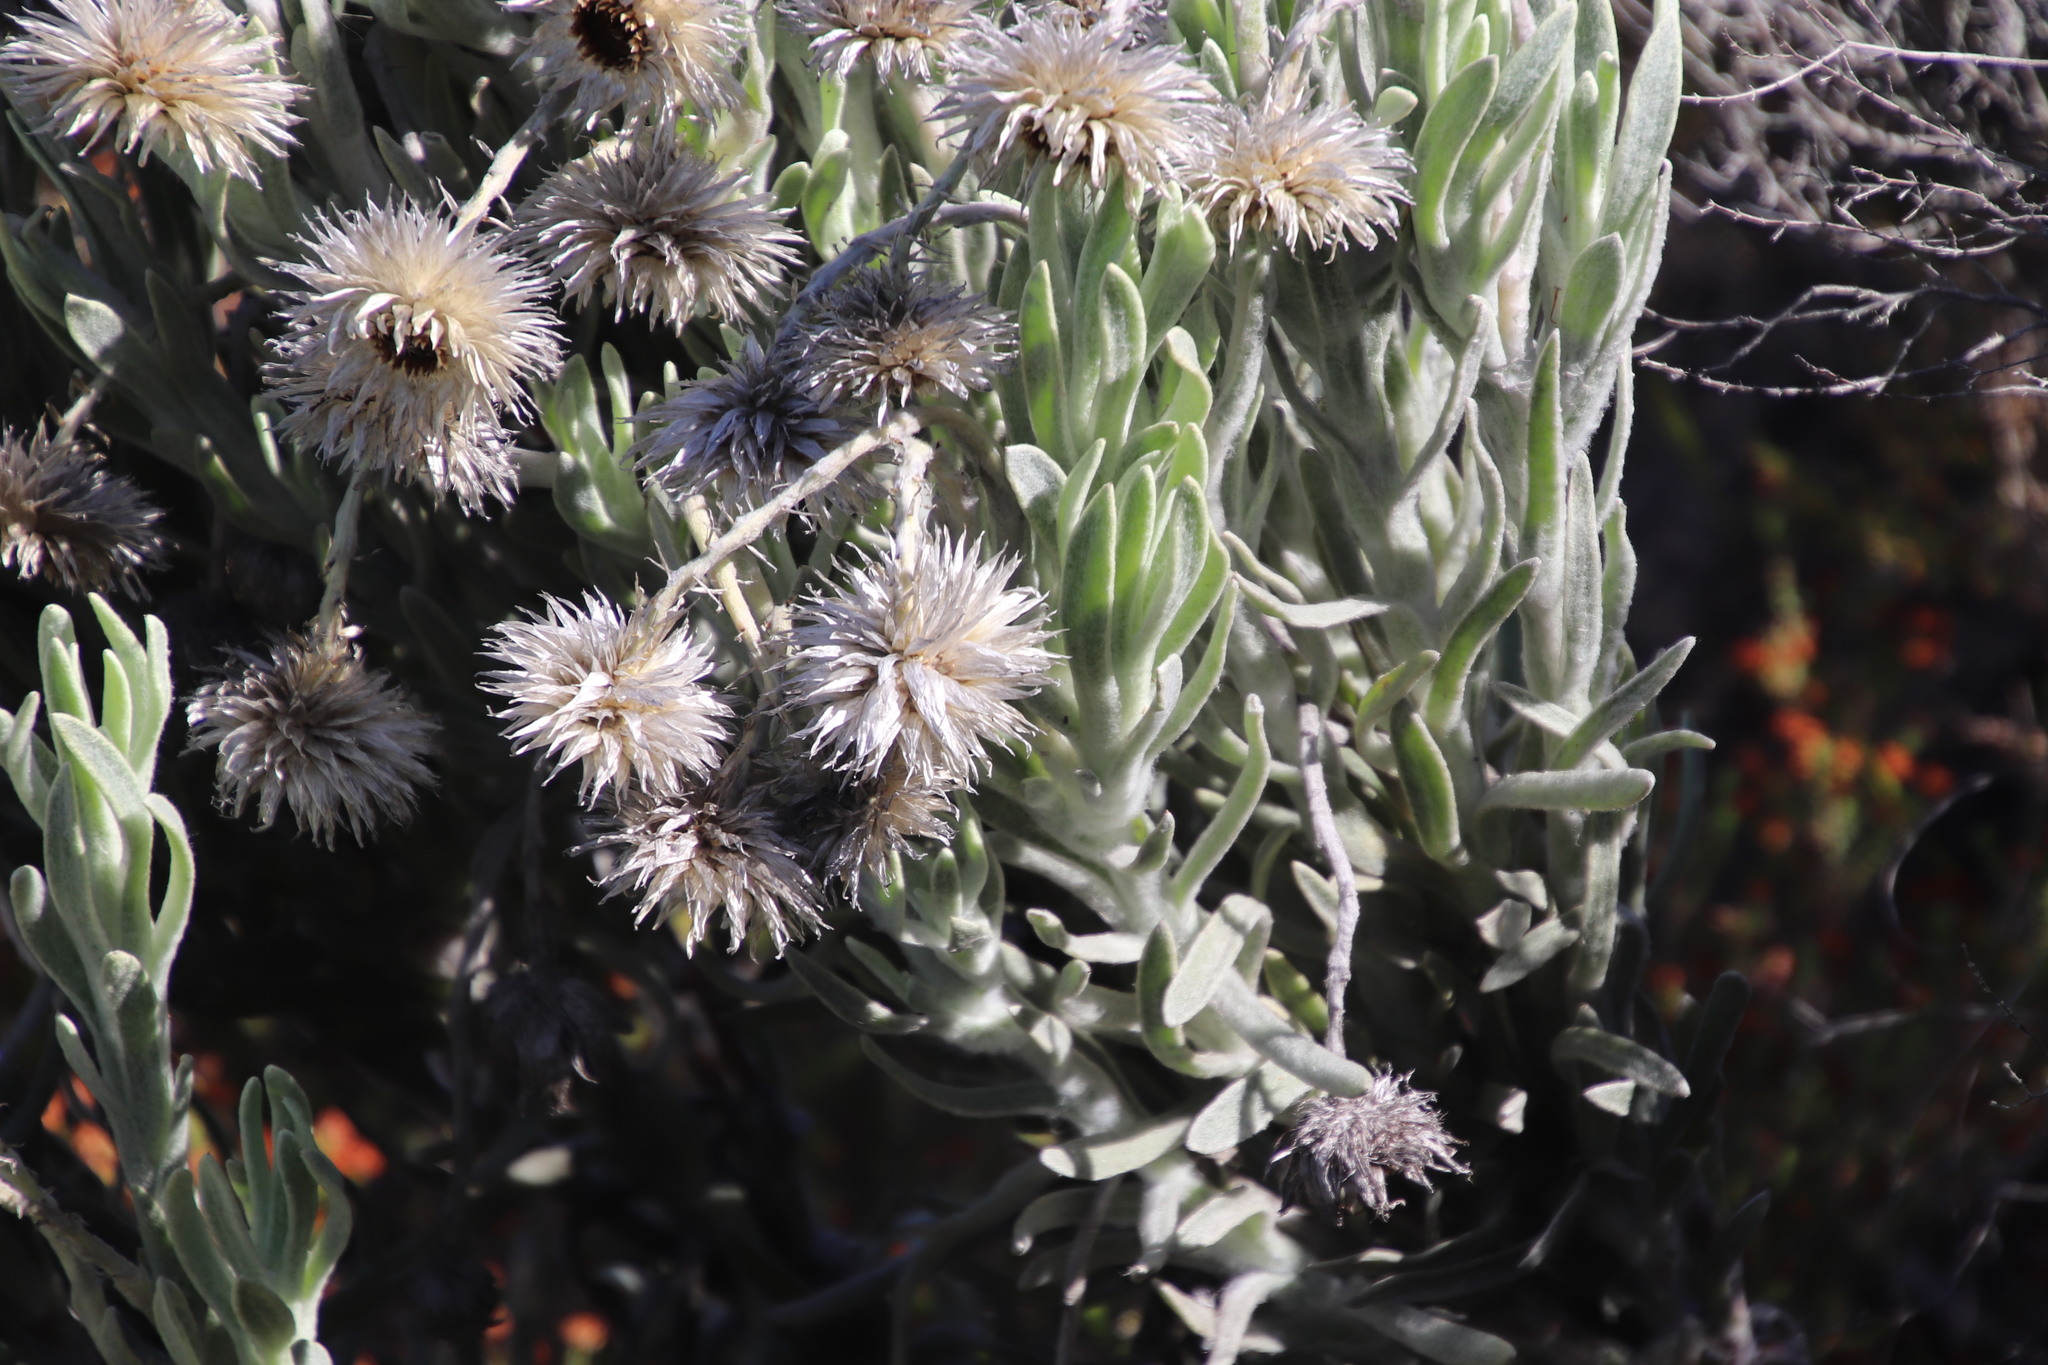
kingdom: Plantae
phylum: Tracheophyta
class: Magnoliopsida
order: Asterales
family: Asteraceae
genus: Syncarpha
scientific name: Syncarpha vestita
